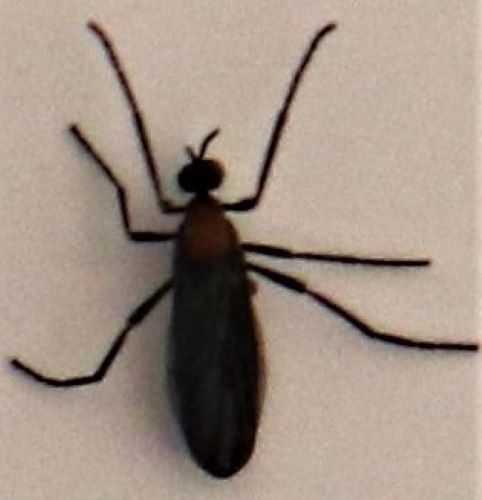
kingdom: Animalia
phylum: Arthropoda
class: Insecta
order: Diptera
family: Bibionidae
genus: Plecia
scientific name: Plecia ruficollis
